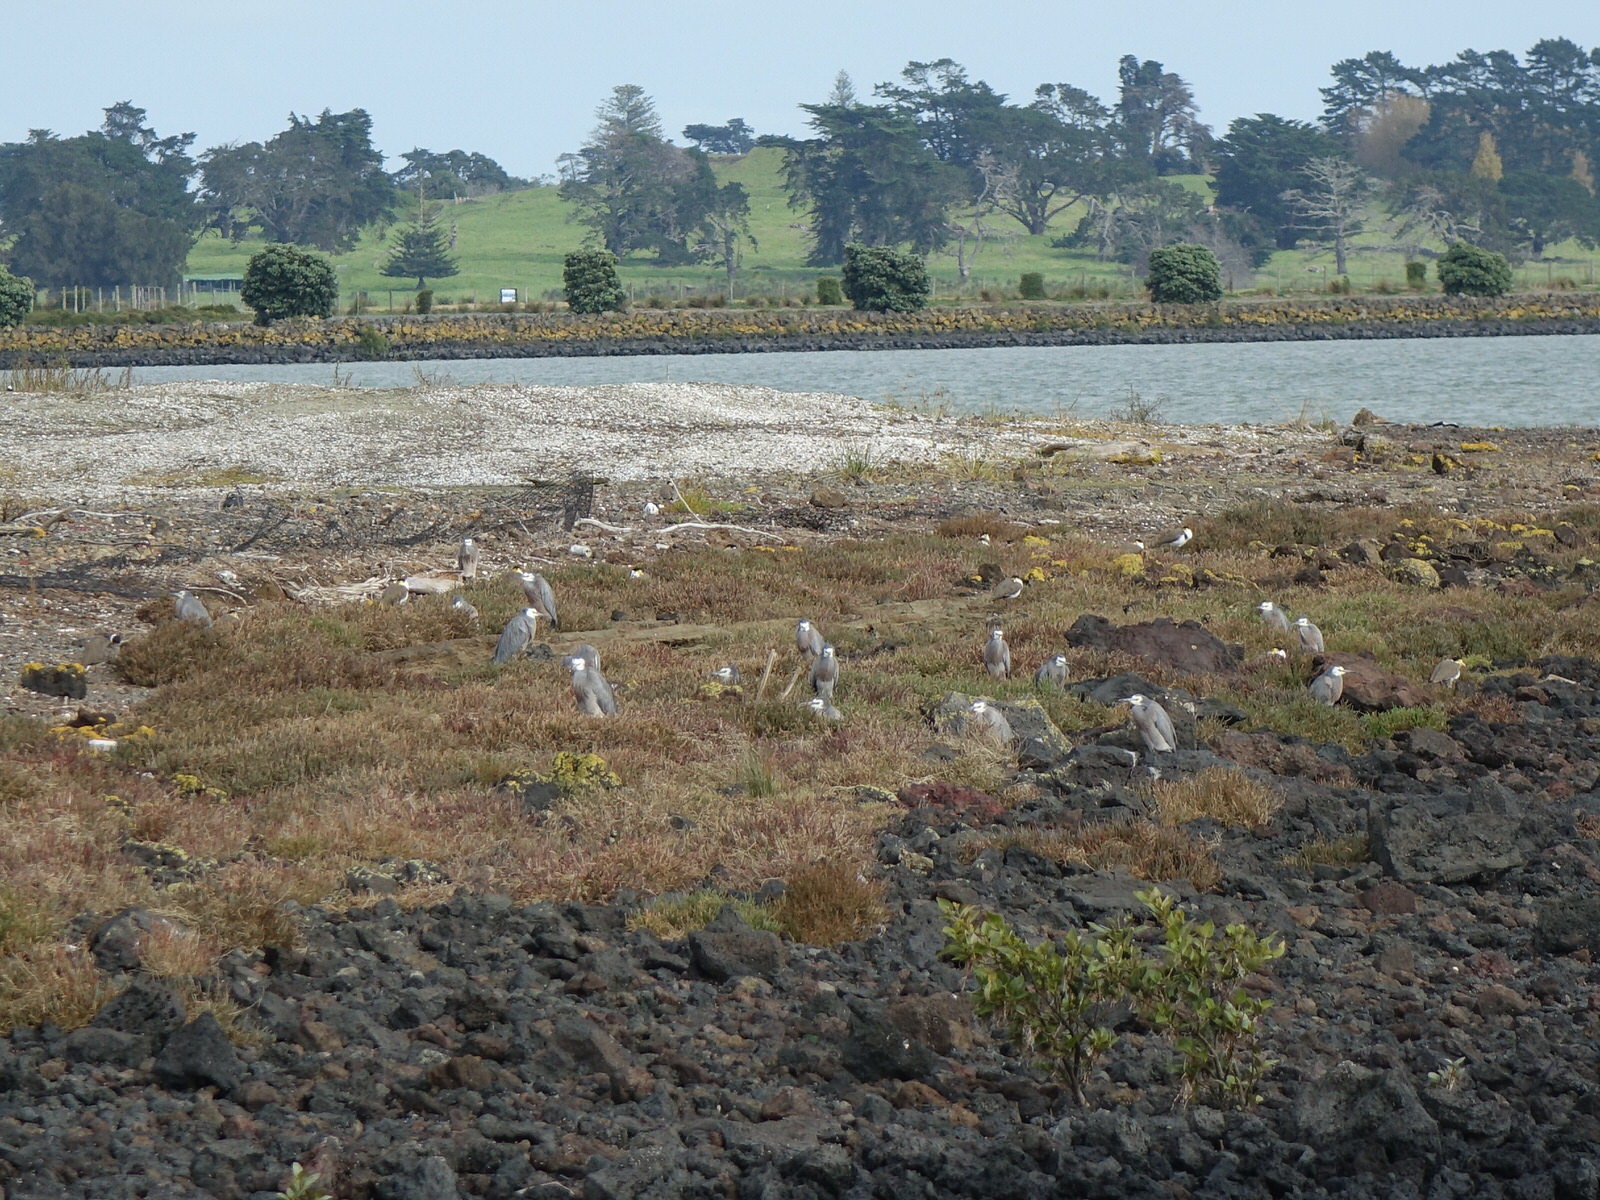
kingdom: Animalia
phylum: Chordata
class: Aves
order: Pelecaniformes
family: Ardeidae
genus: Egretta
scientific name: Egretta novaehollandiae
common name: White-faced heron
